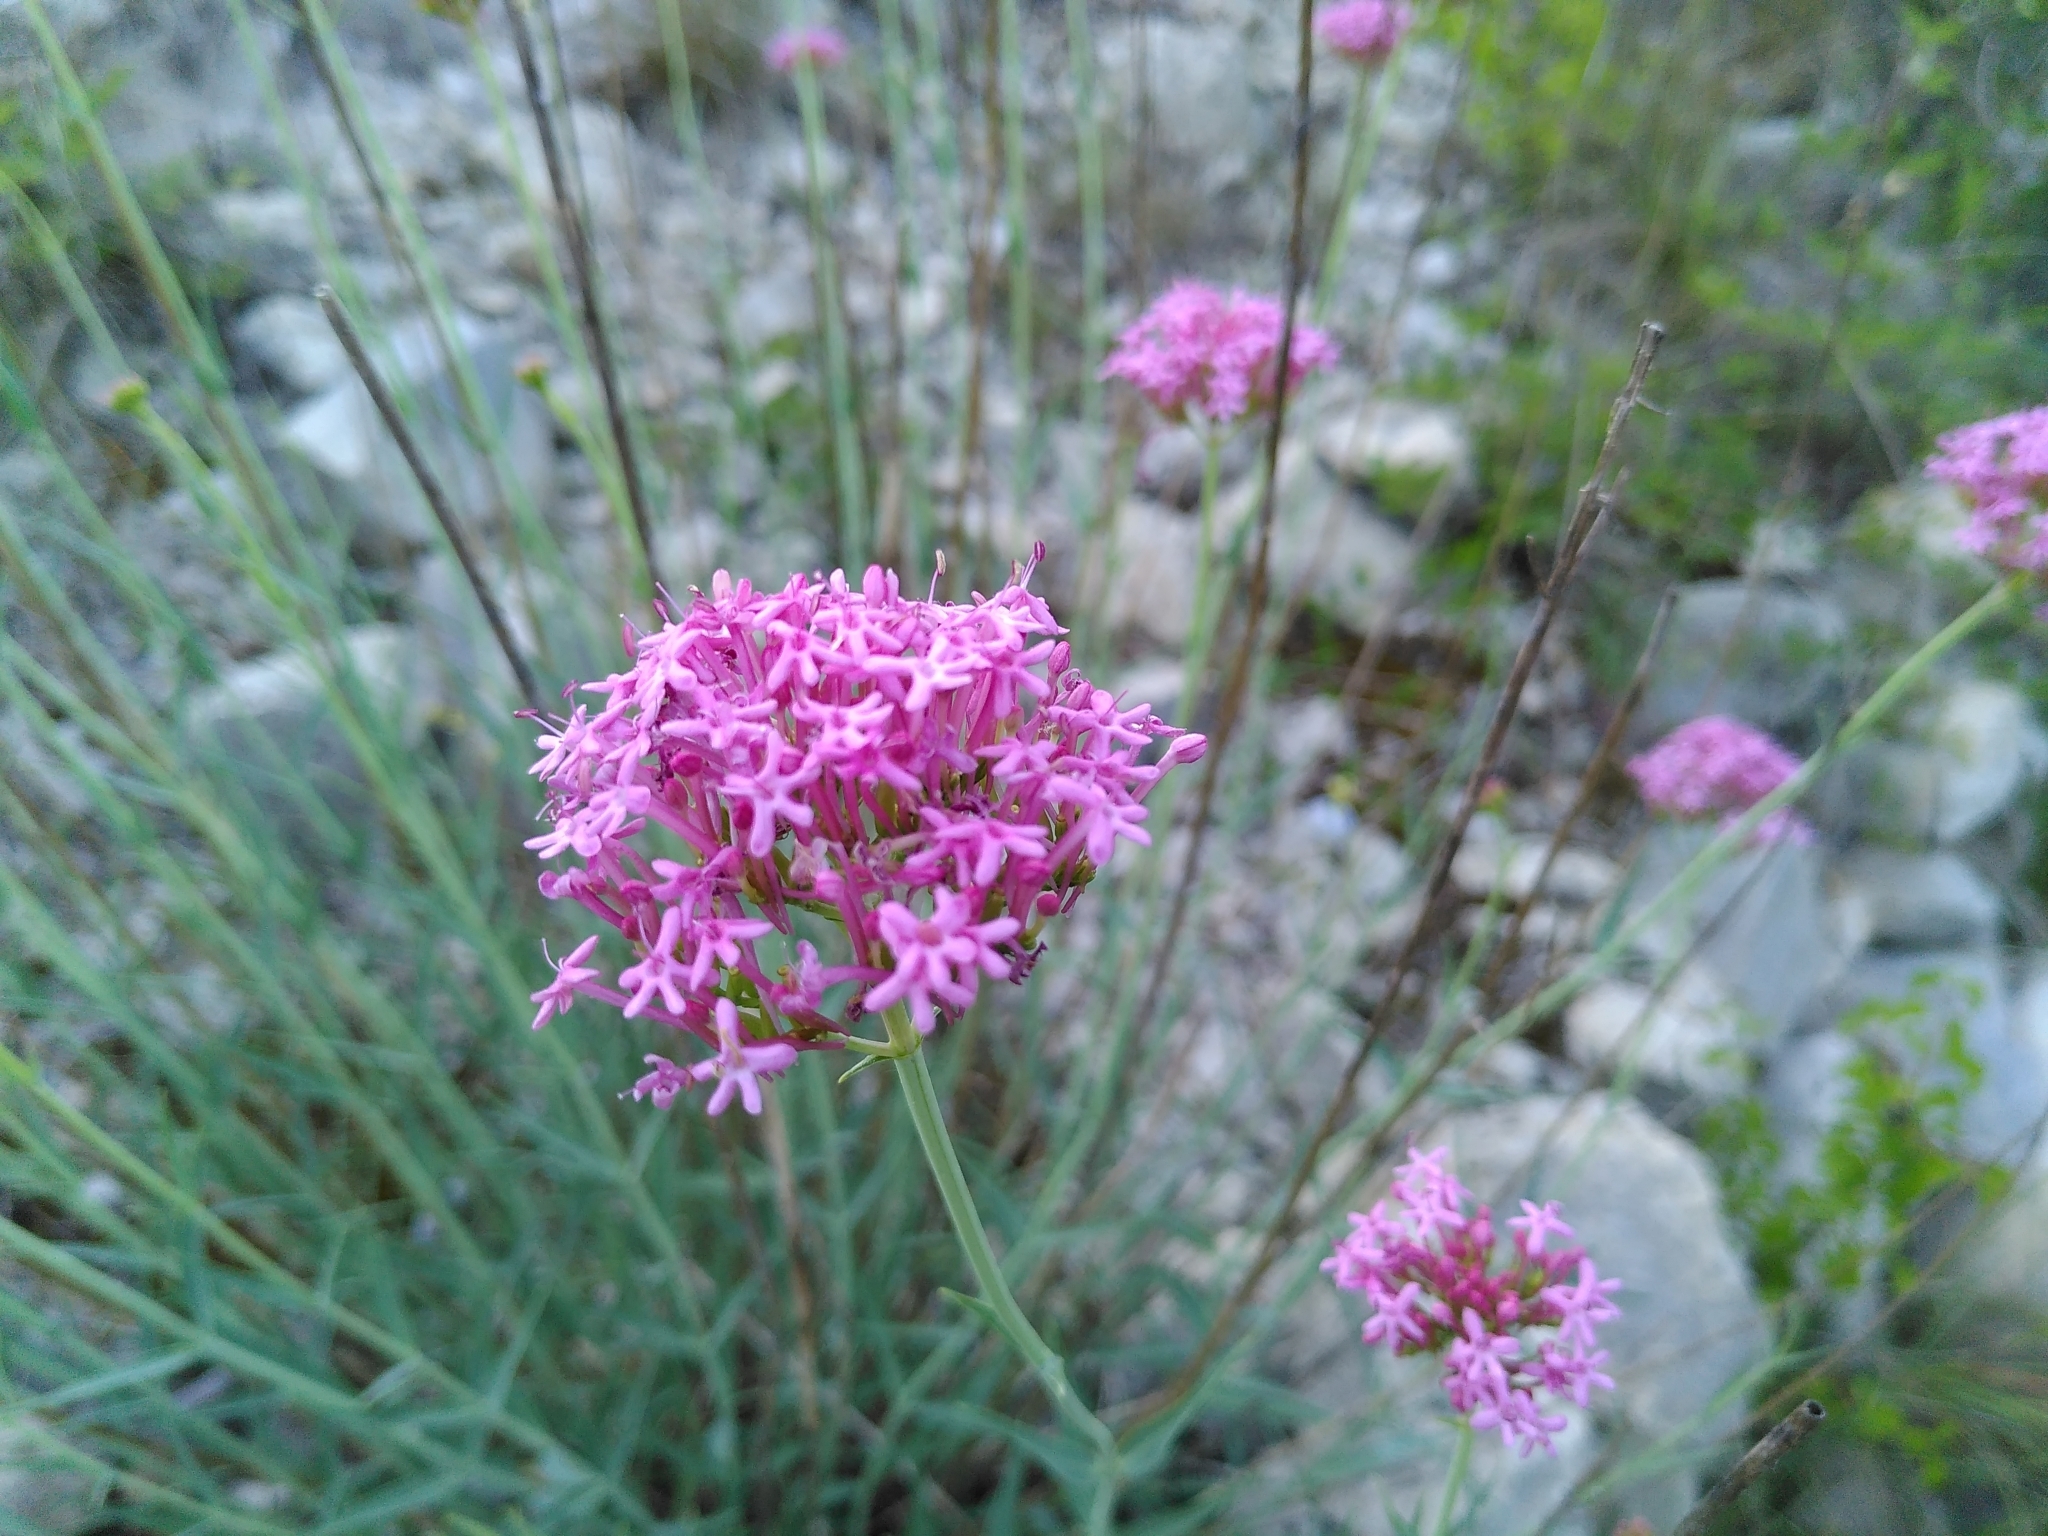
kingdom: Plantae
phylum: Tracheophyta
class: Magnoliopsida
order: Dipsacales
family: Caprifoliaceae
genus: Centranthus
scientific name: Centranthus lecoqii
